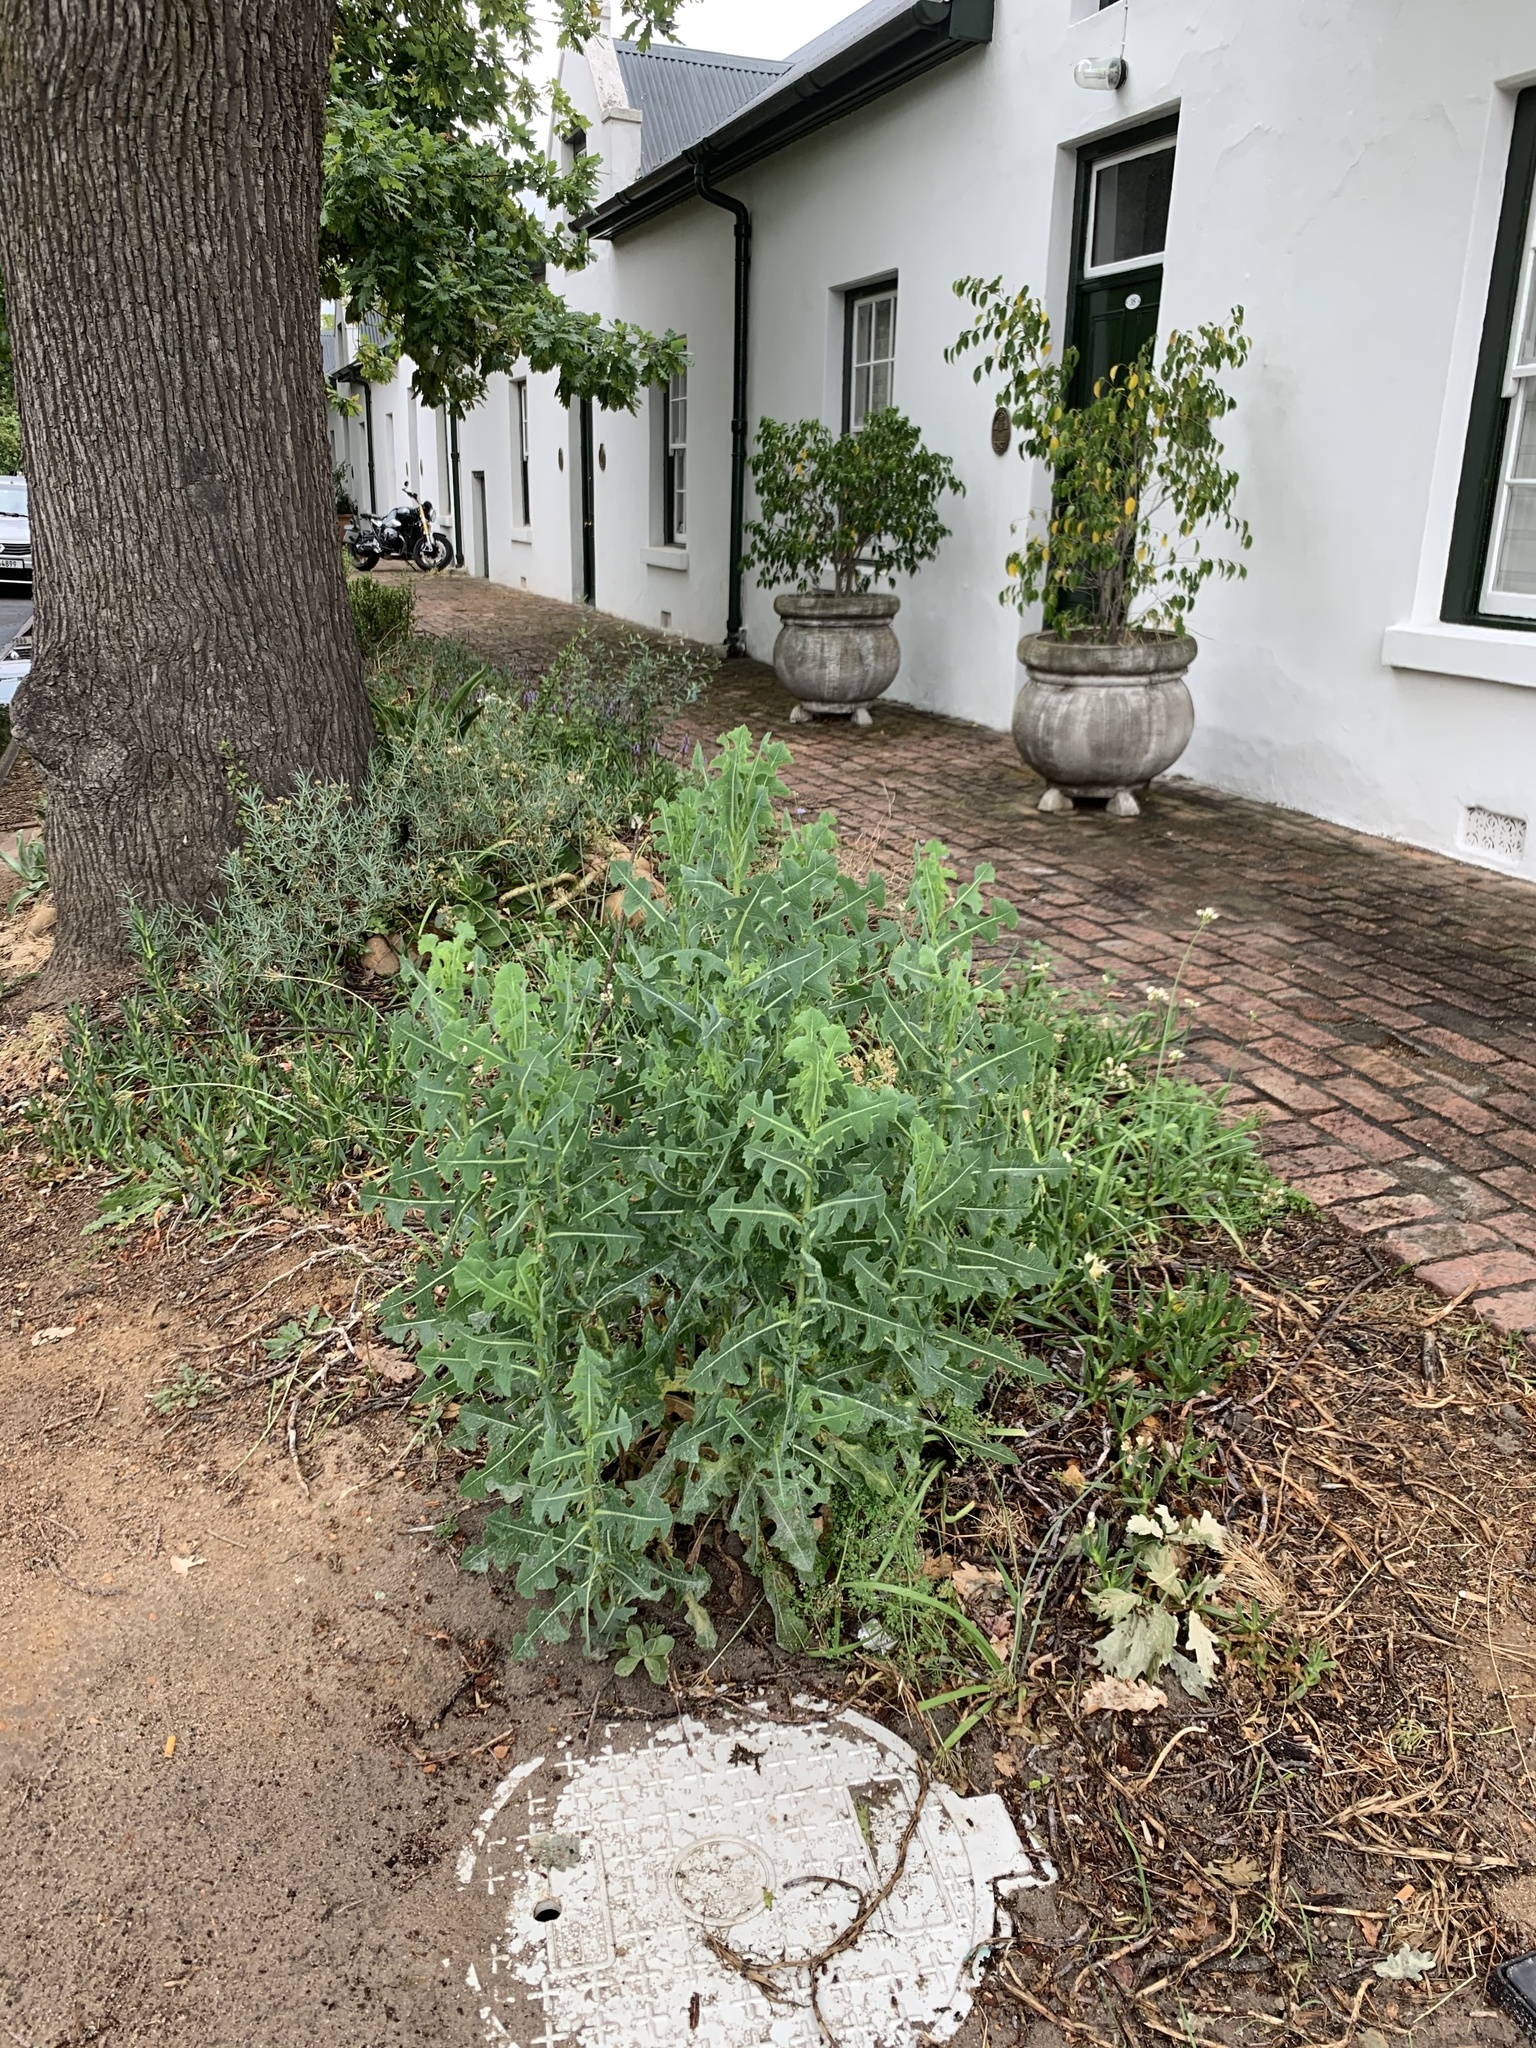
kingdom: Plantae
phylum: Tracheophyta
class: Magnoliopsida
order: Asterales
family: Asteraceae
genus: Lactuca
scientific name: Lactuca serriola
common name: Prickly lettuce
